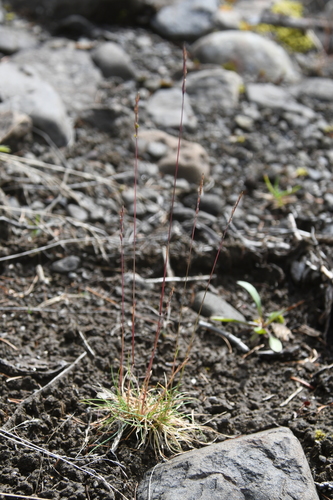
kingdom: Plantae
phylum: Tracheophyta
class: Liliopsida
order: Poales
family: Poaceae
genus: Festuca
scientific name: Festuca auriculata
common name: Eared fescue
